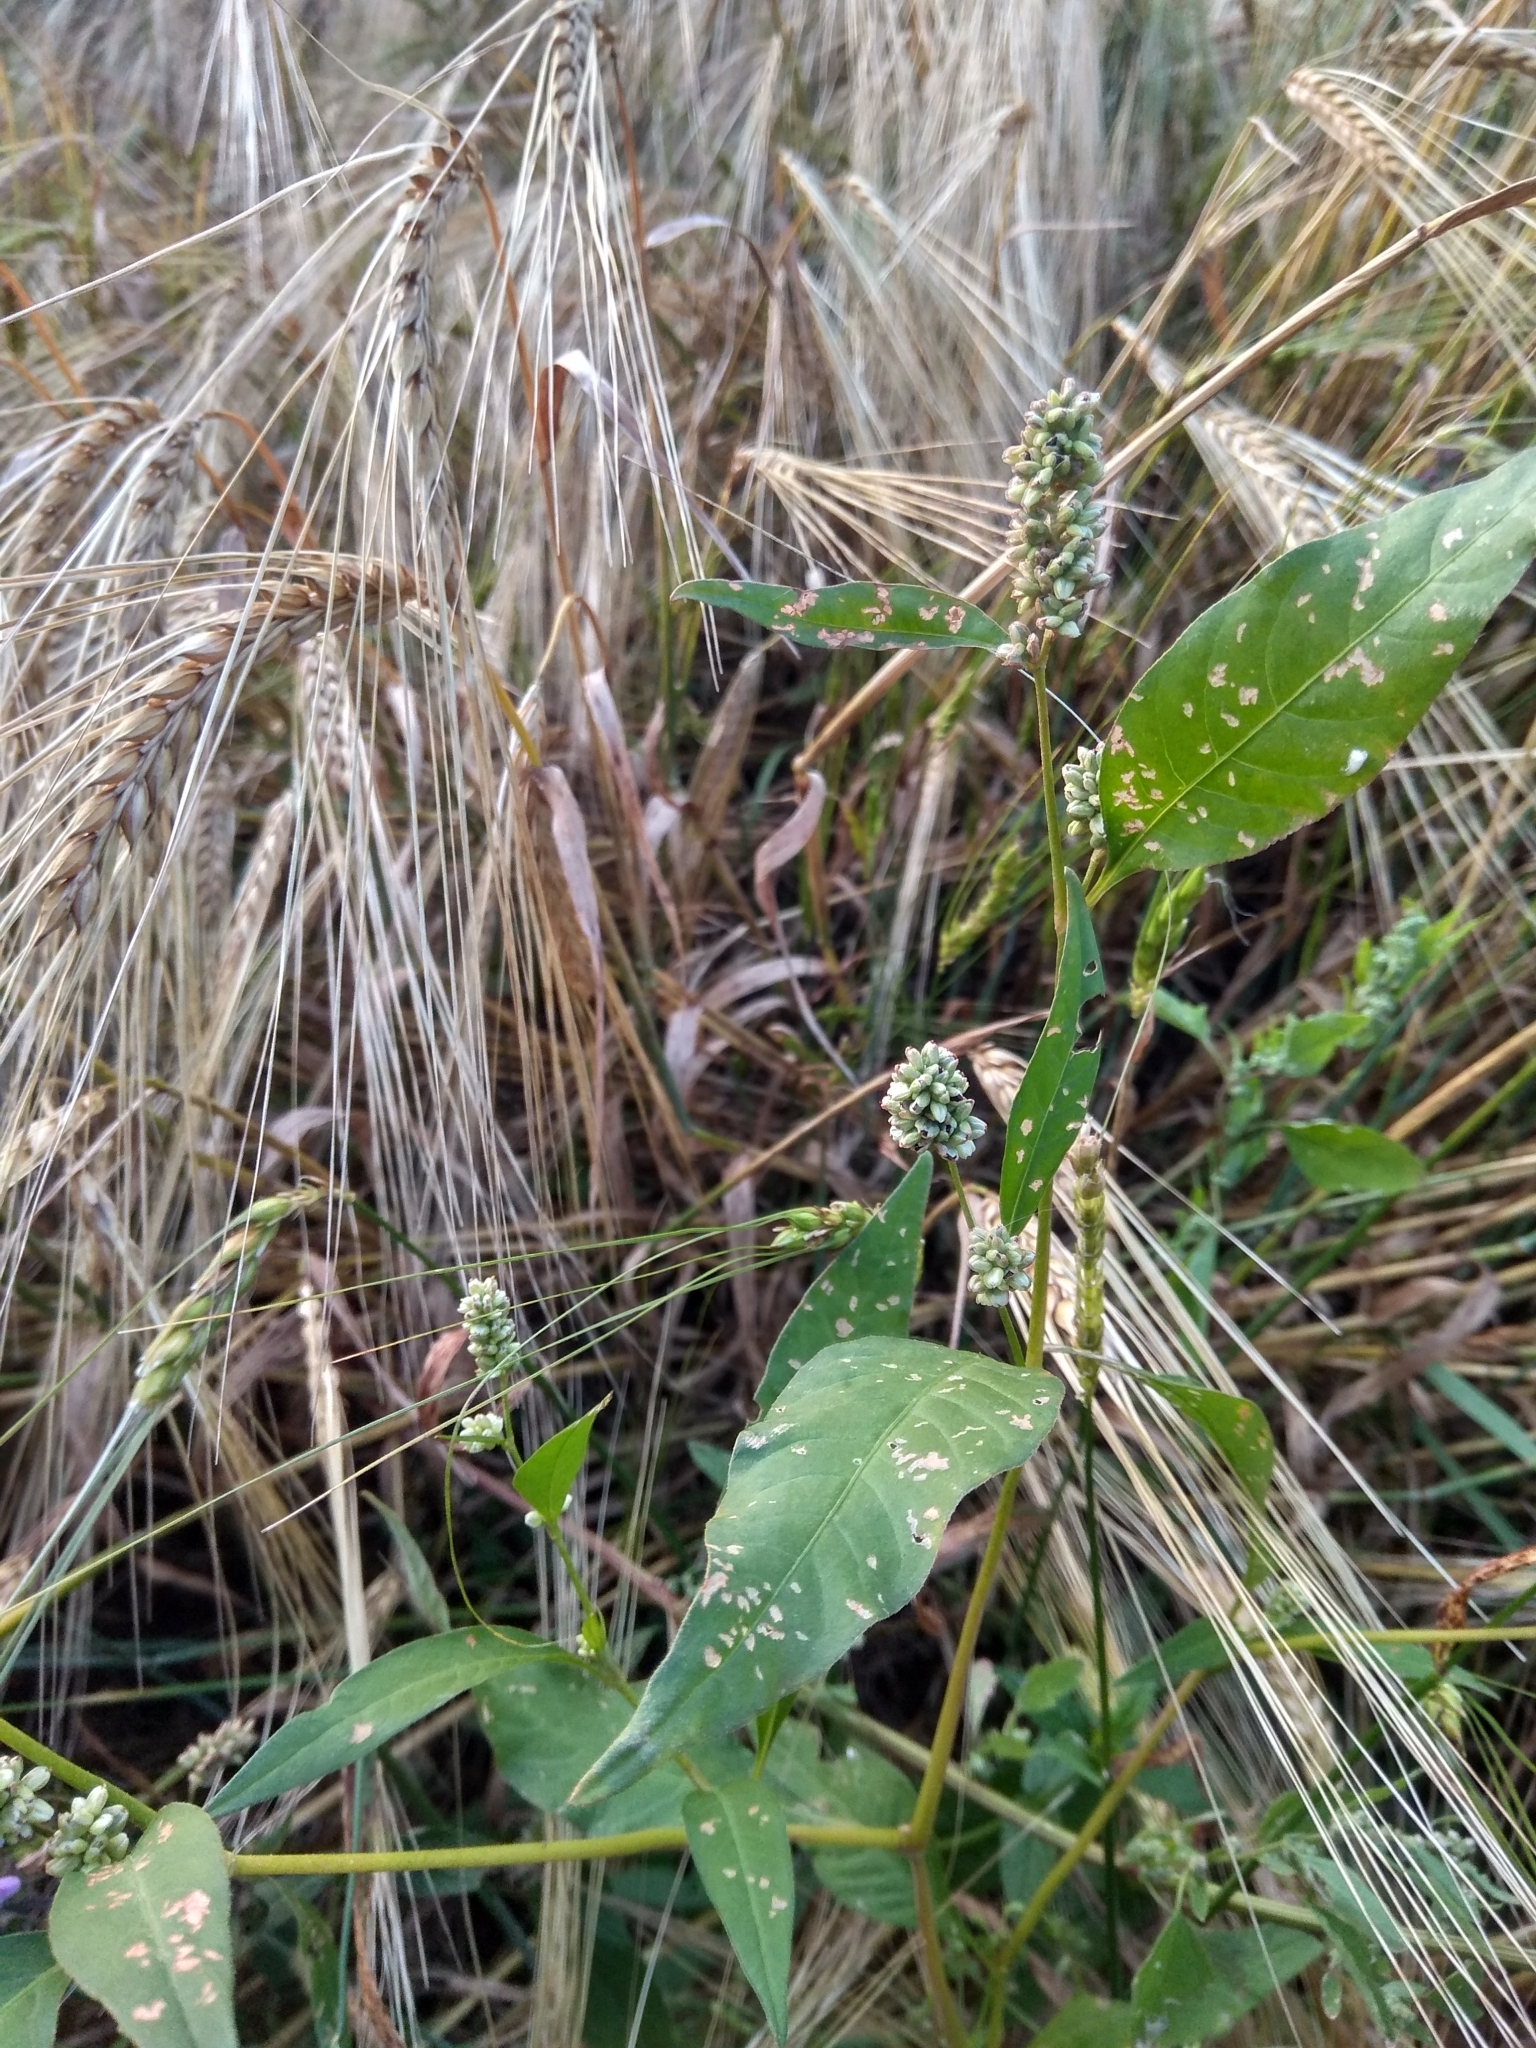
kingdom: Plantae
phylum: Tracheophyta
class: Magnoliopsida
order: Caryophyllales
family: Polygonaceae
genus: Persicaria
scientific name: Persicaria lapathifolia
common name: Curlytop knotweed
